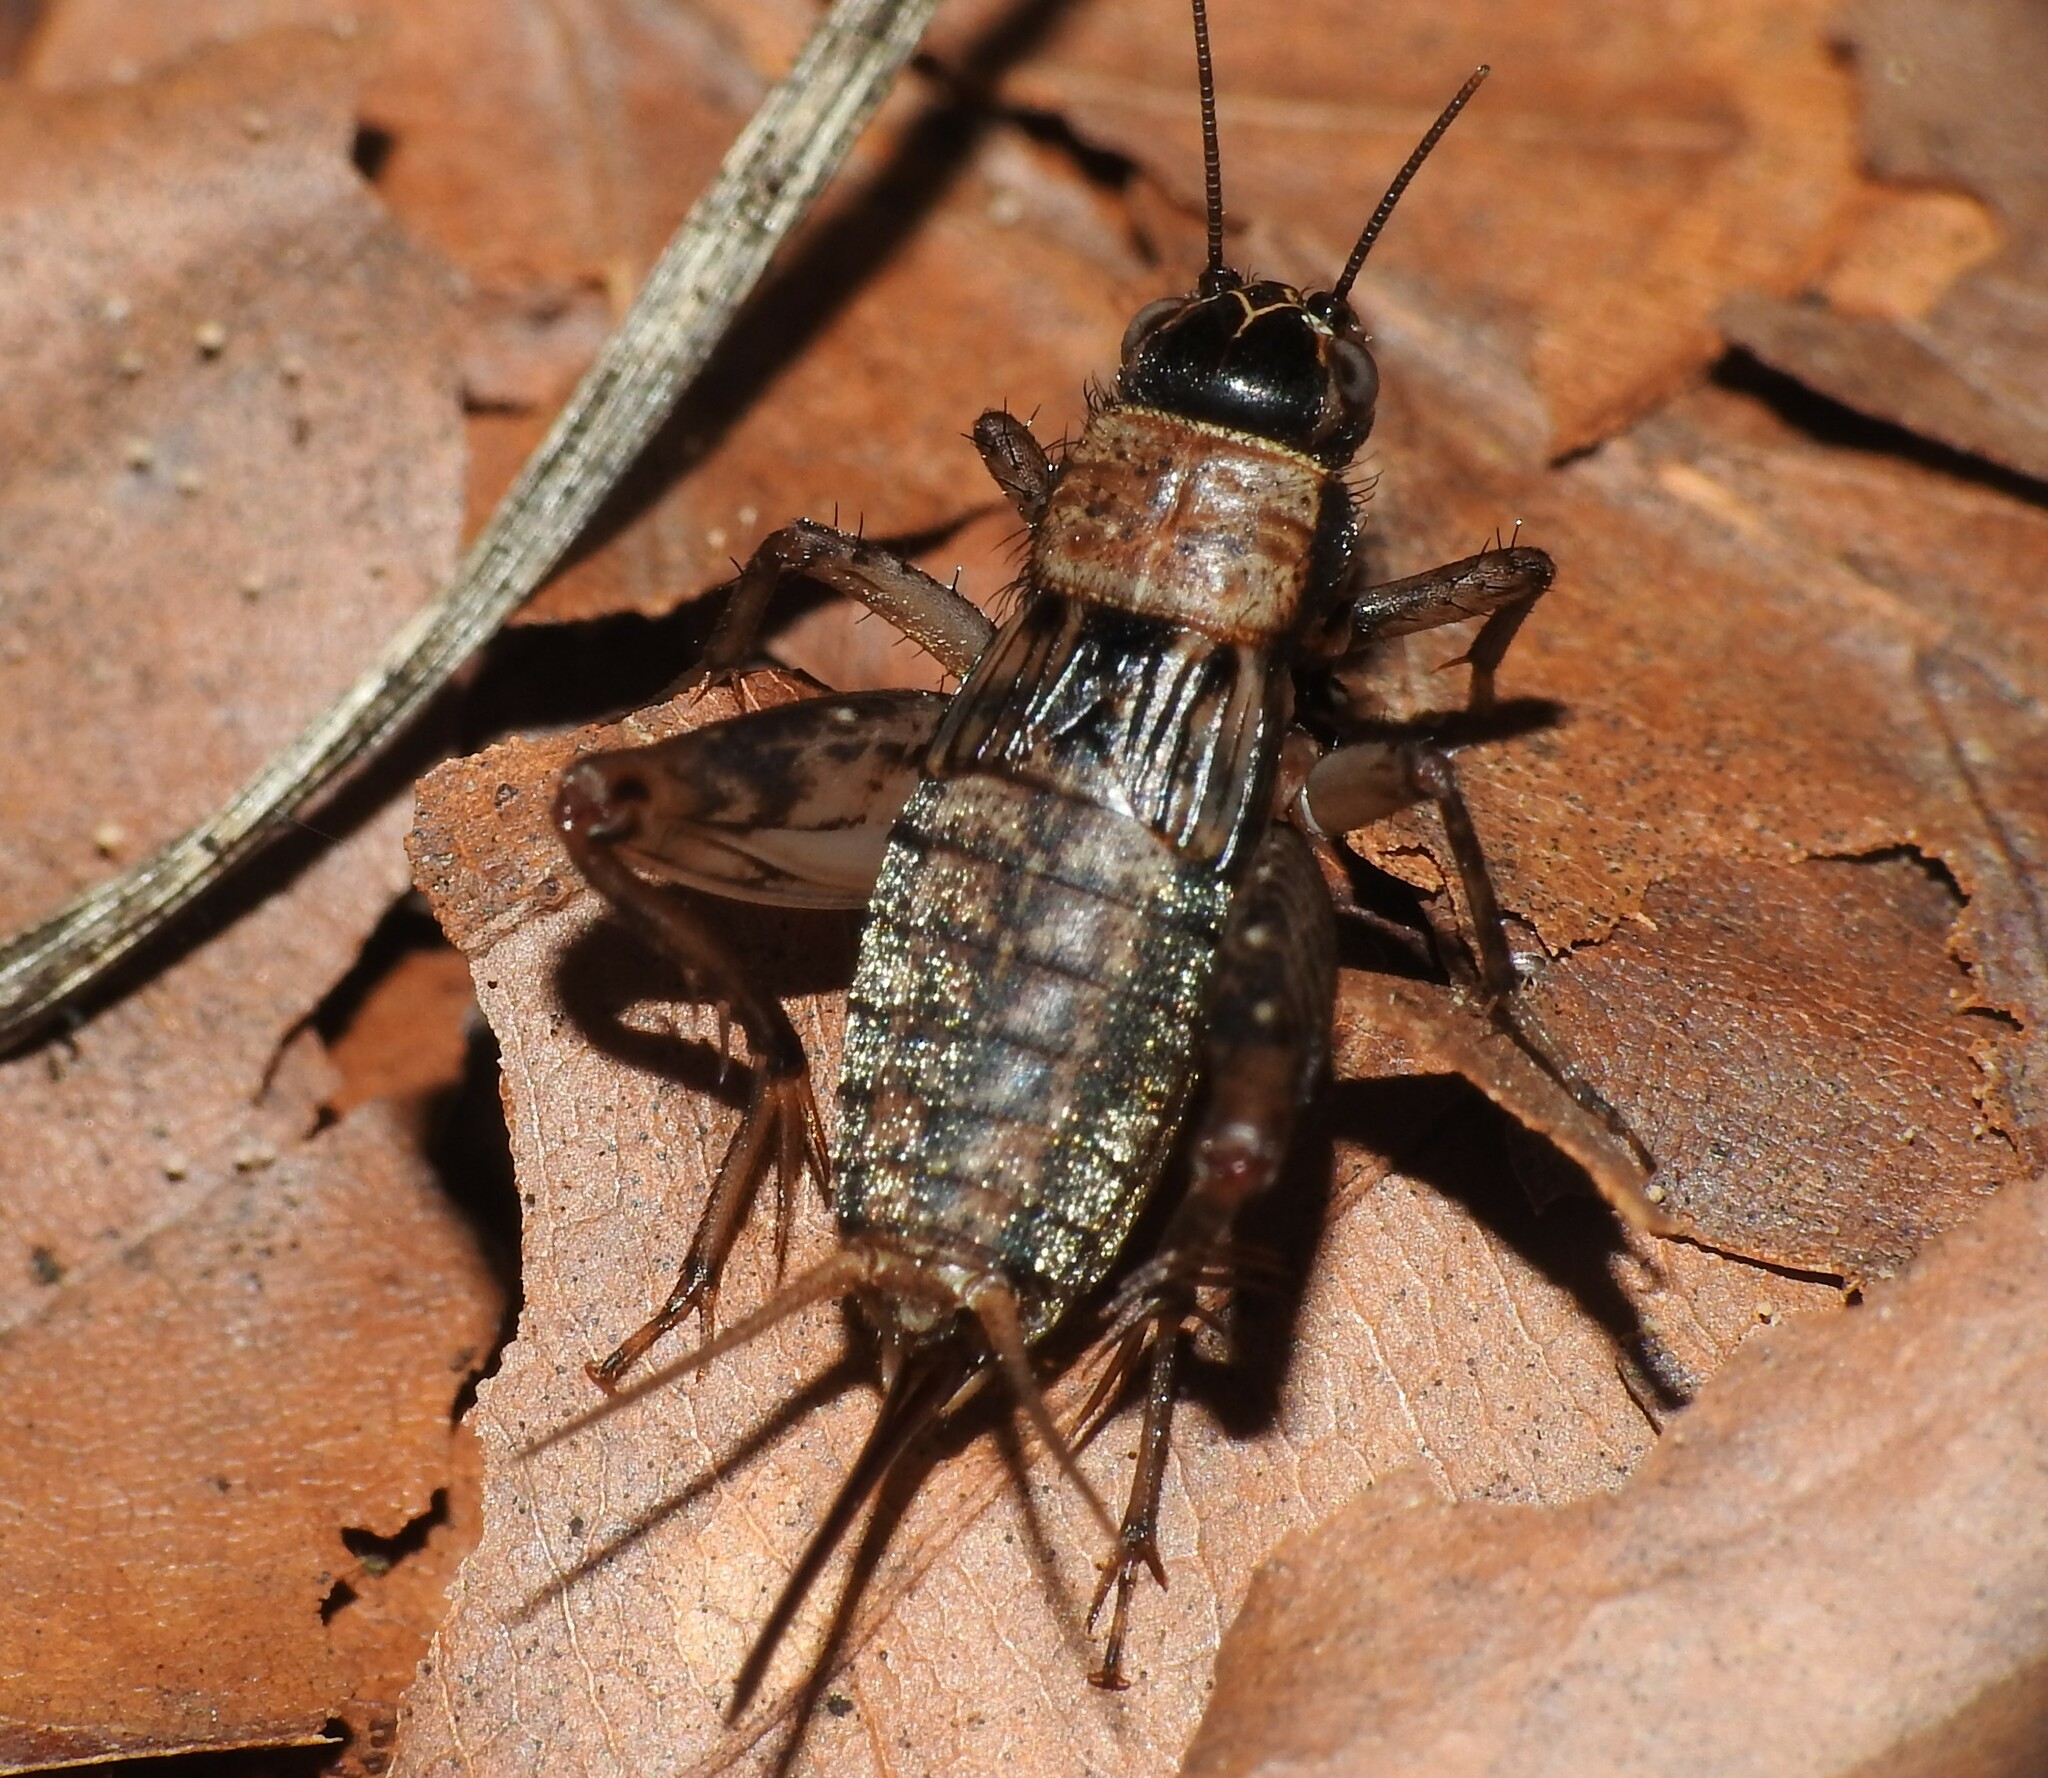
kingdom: Animalia
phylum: Arthropoda
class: Insecta
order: Orthoptera
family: Trigonidiidae
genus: Nemobius
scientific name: Nemobius sylvestris
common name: Wood-cricket
